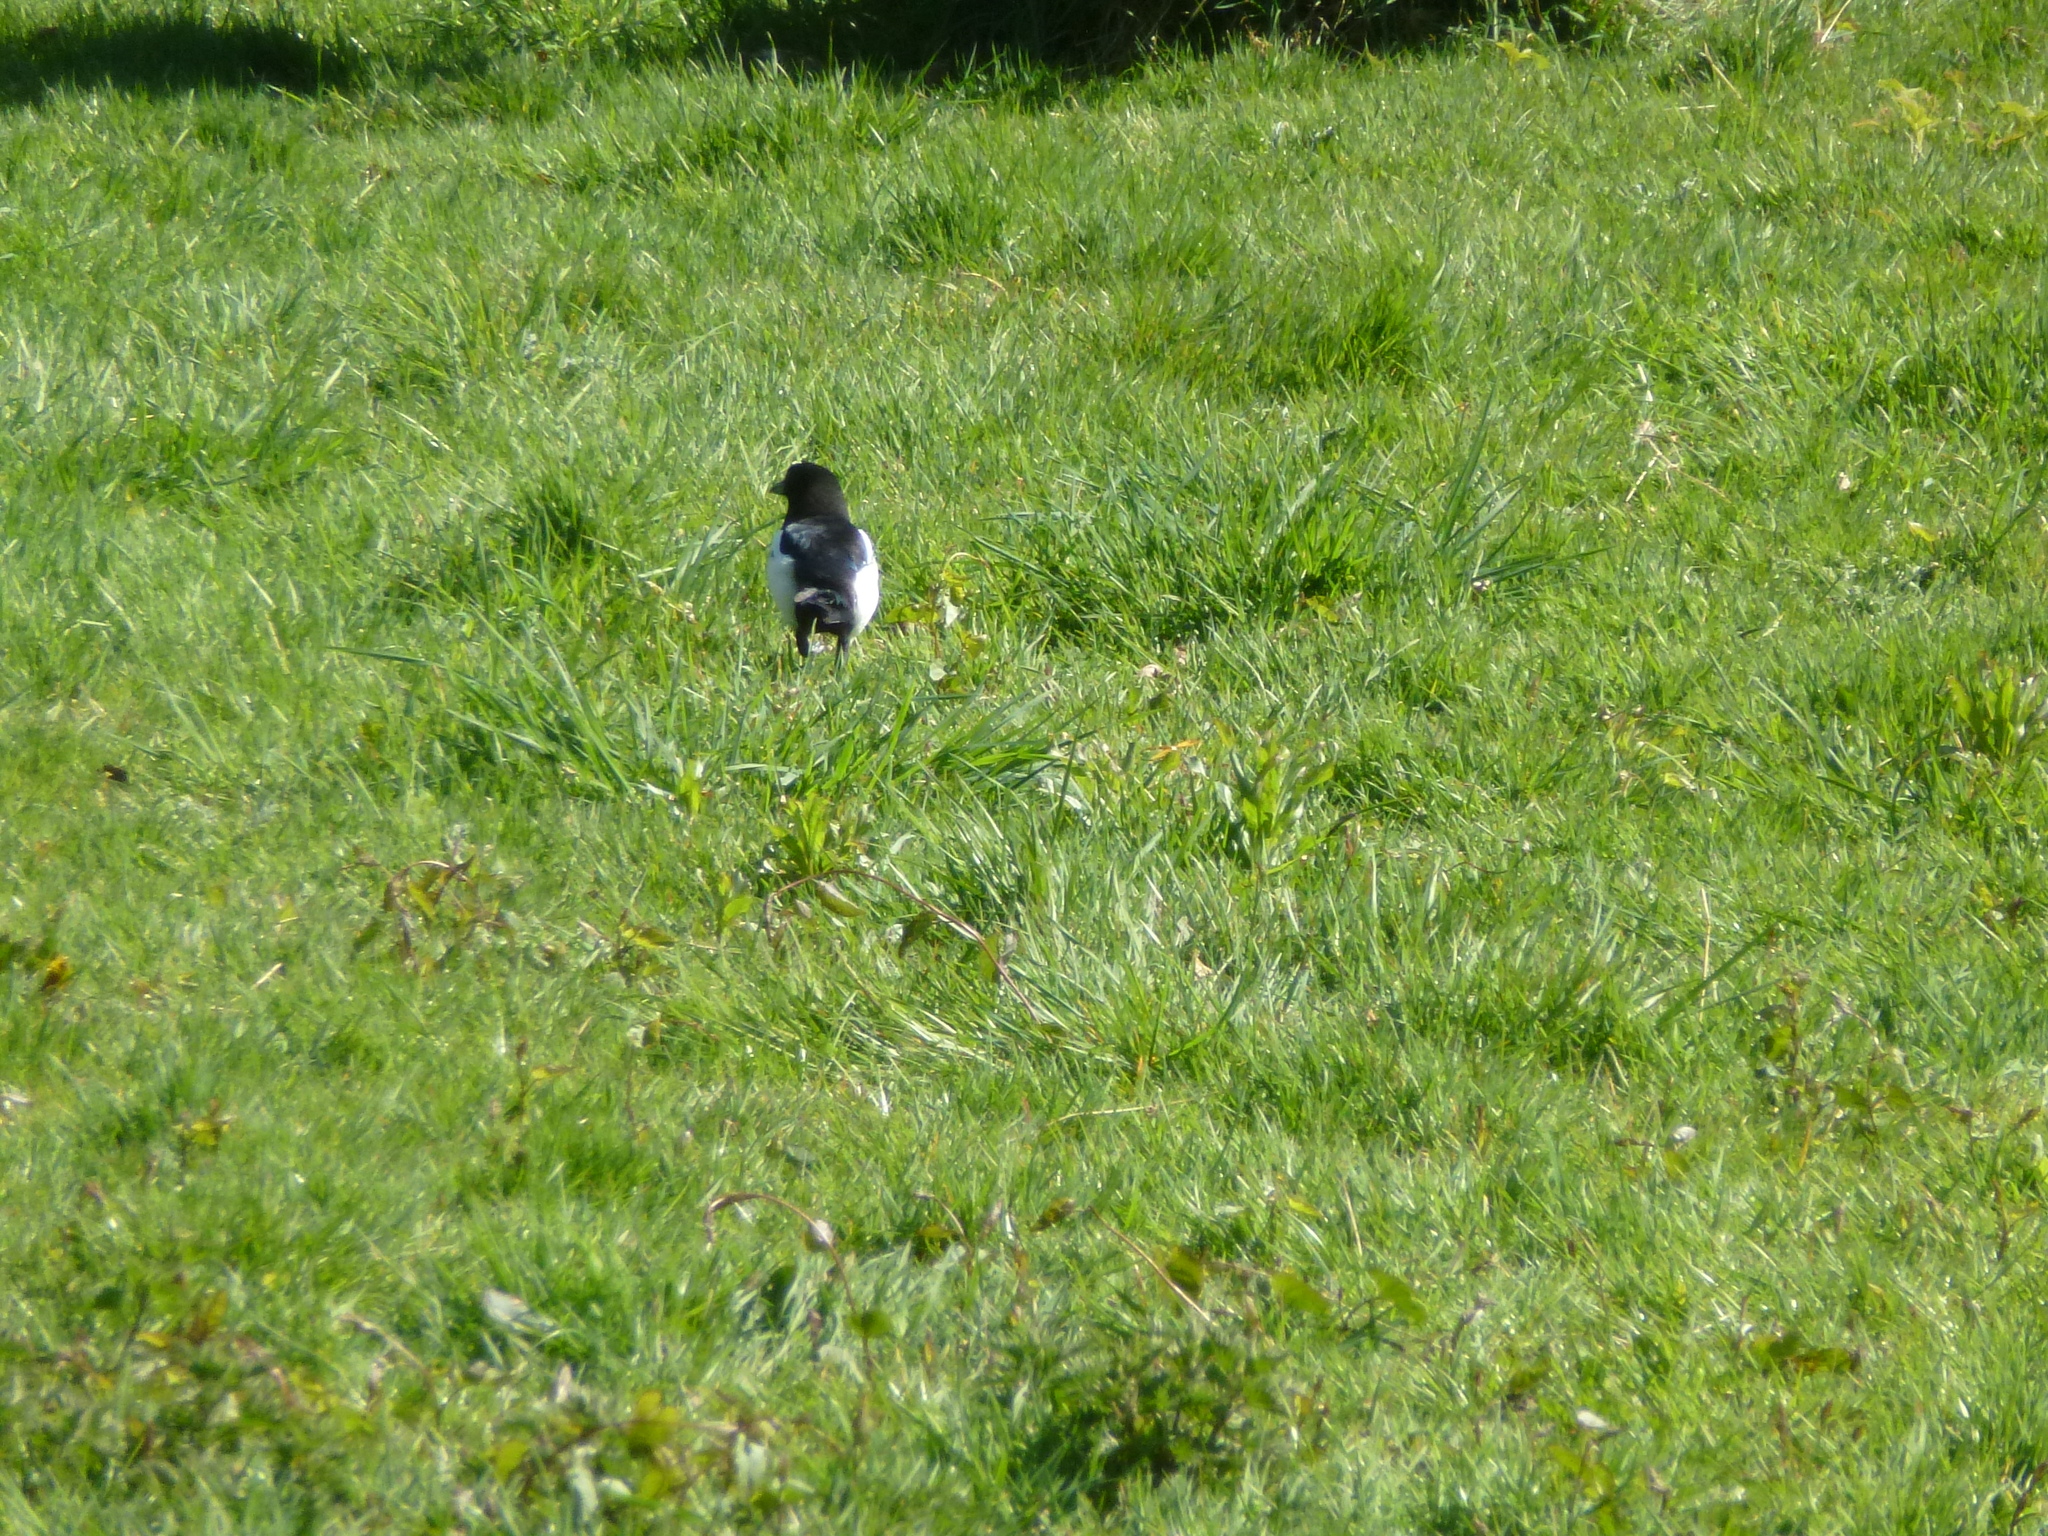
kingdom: Animalia
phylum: Chordata
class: Aves
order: Passeriformes
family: Corvidae
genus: Pica
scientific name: Pica pica
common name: Eurasian magpie
